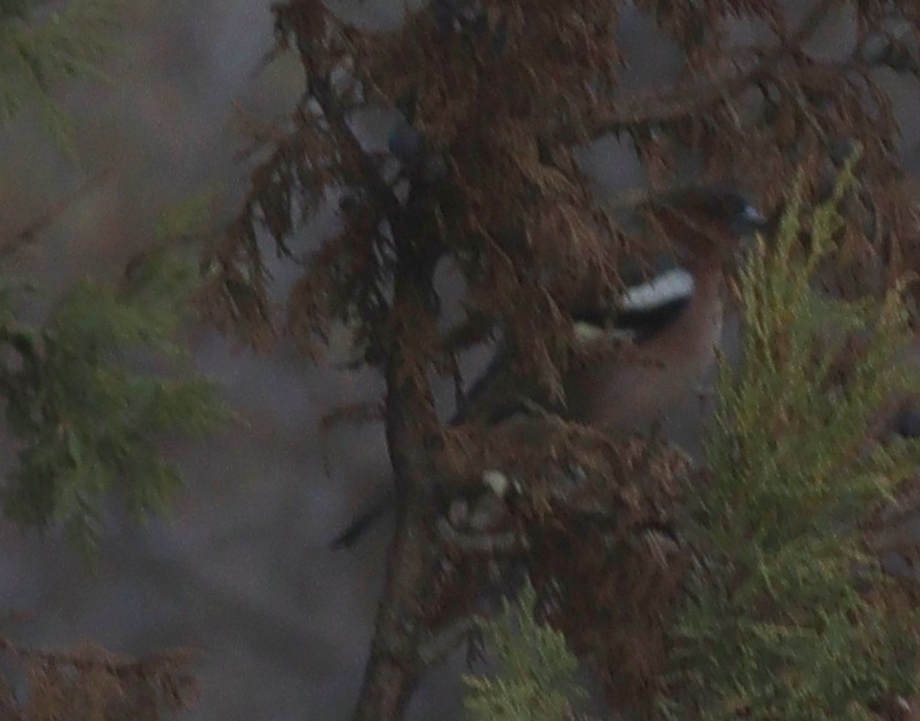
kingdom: Animalia
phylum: Chordata
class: Aves
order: Passeriformes
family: Fringillidae
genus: Fringilla
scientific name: Fringilla coelebs
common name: Common chaffinch
